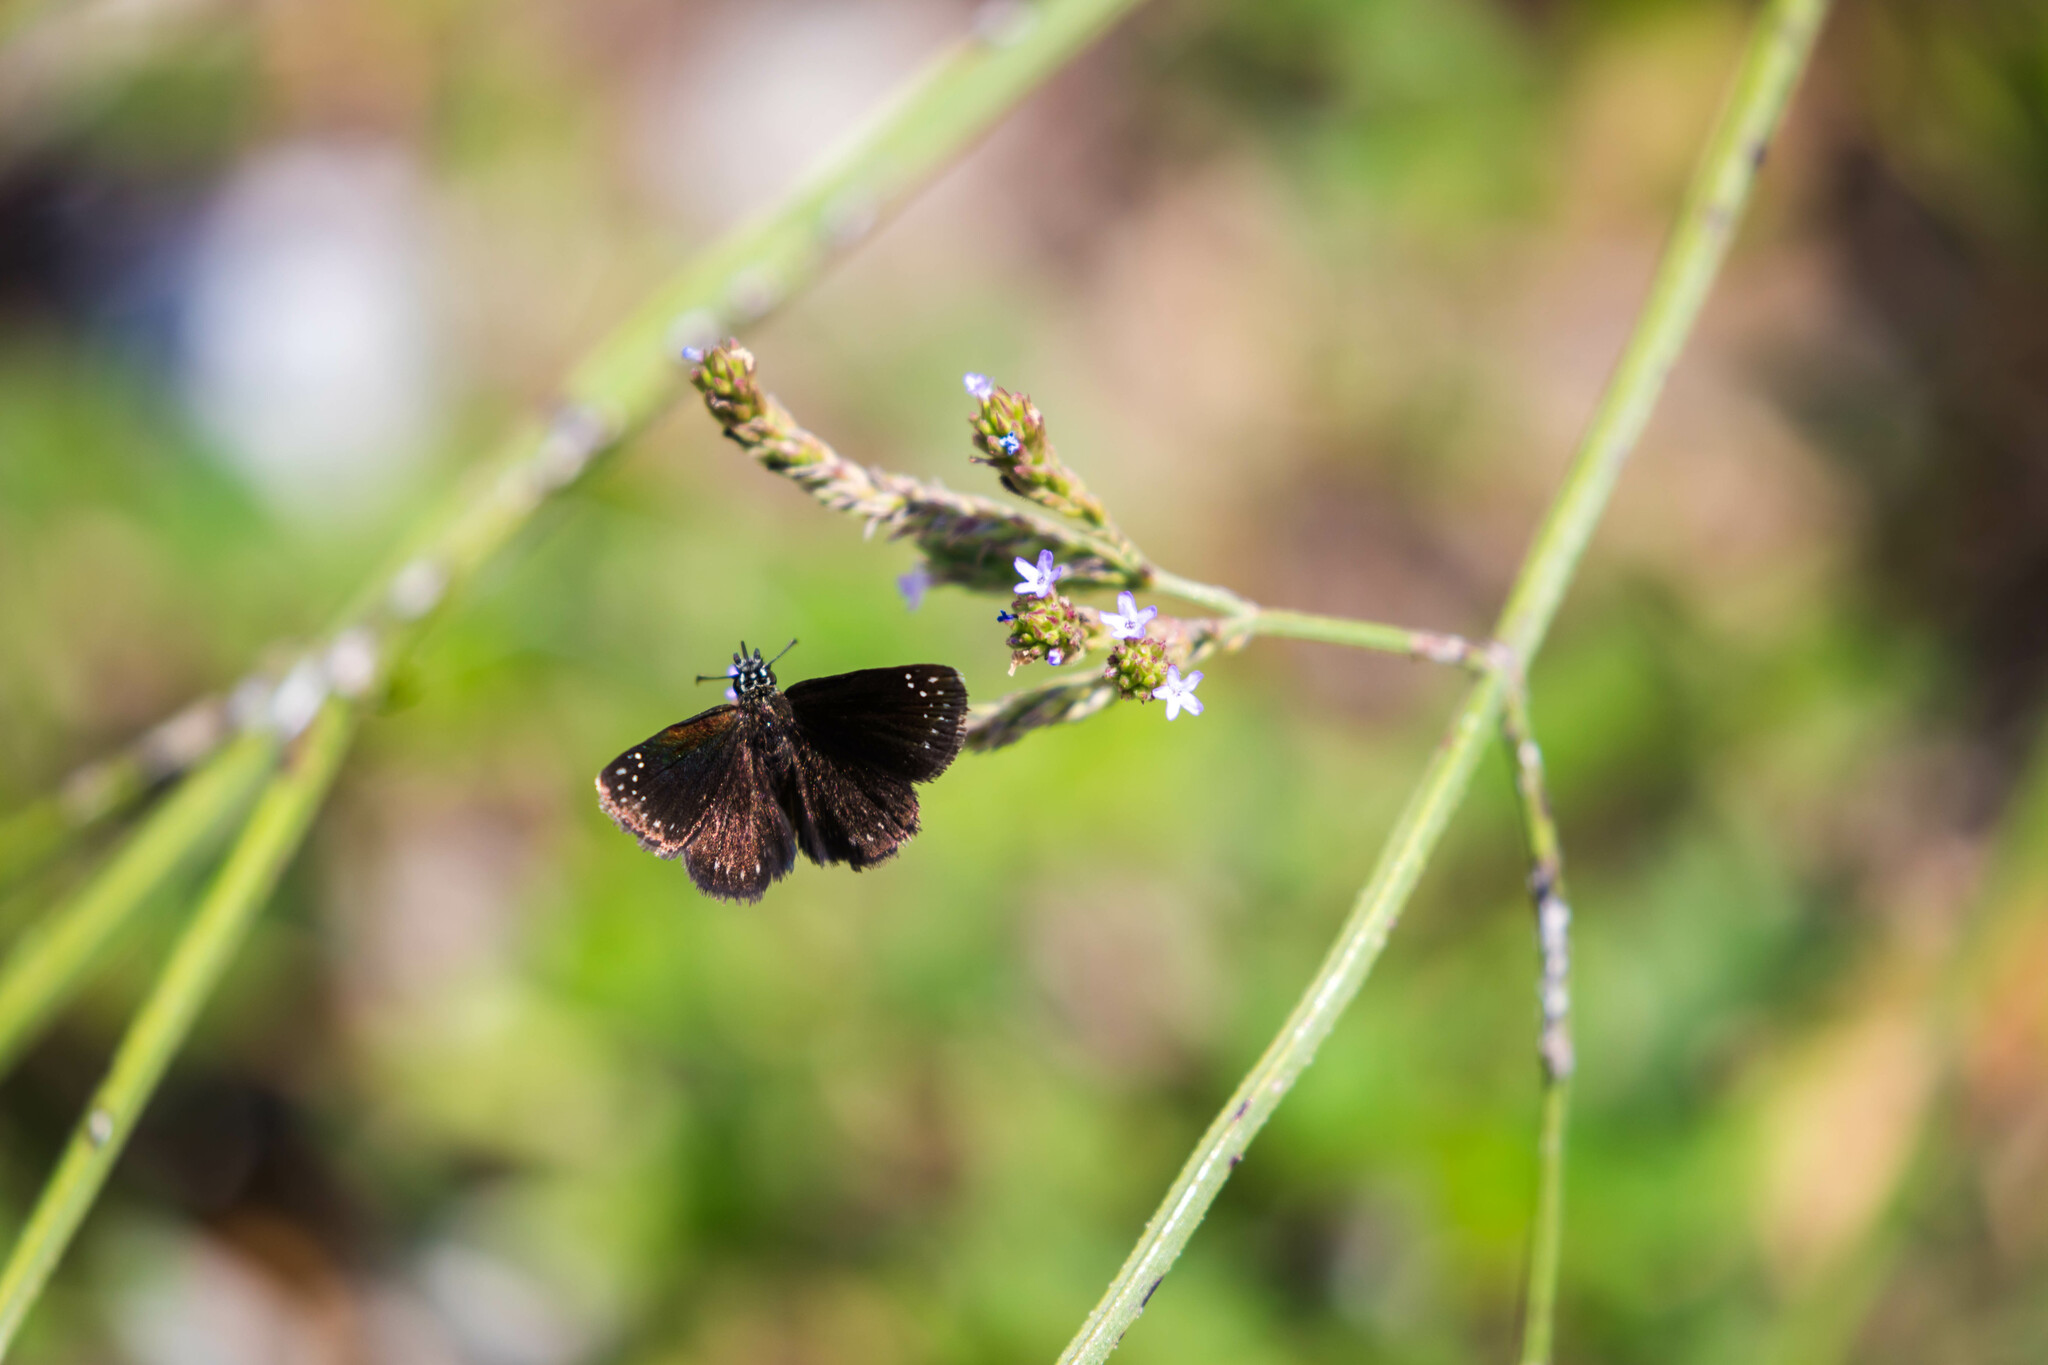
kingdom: Animalia
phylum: Arthropoda
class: Insecta
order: Lepidoptera
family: Hesperiidae
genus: Pholisora
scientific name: Pholisora catullus
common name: Common sootywing
